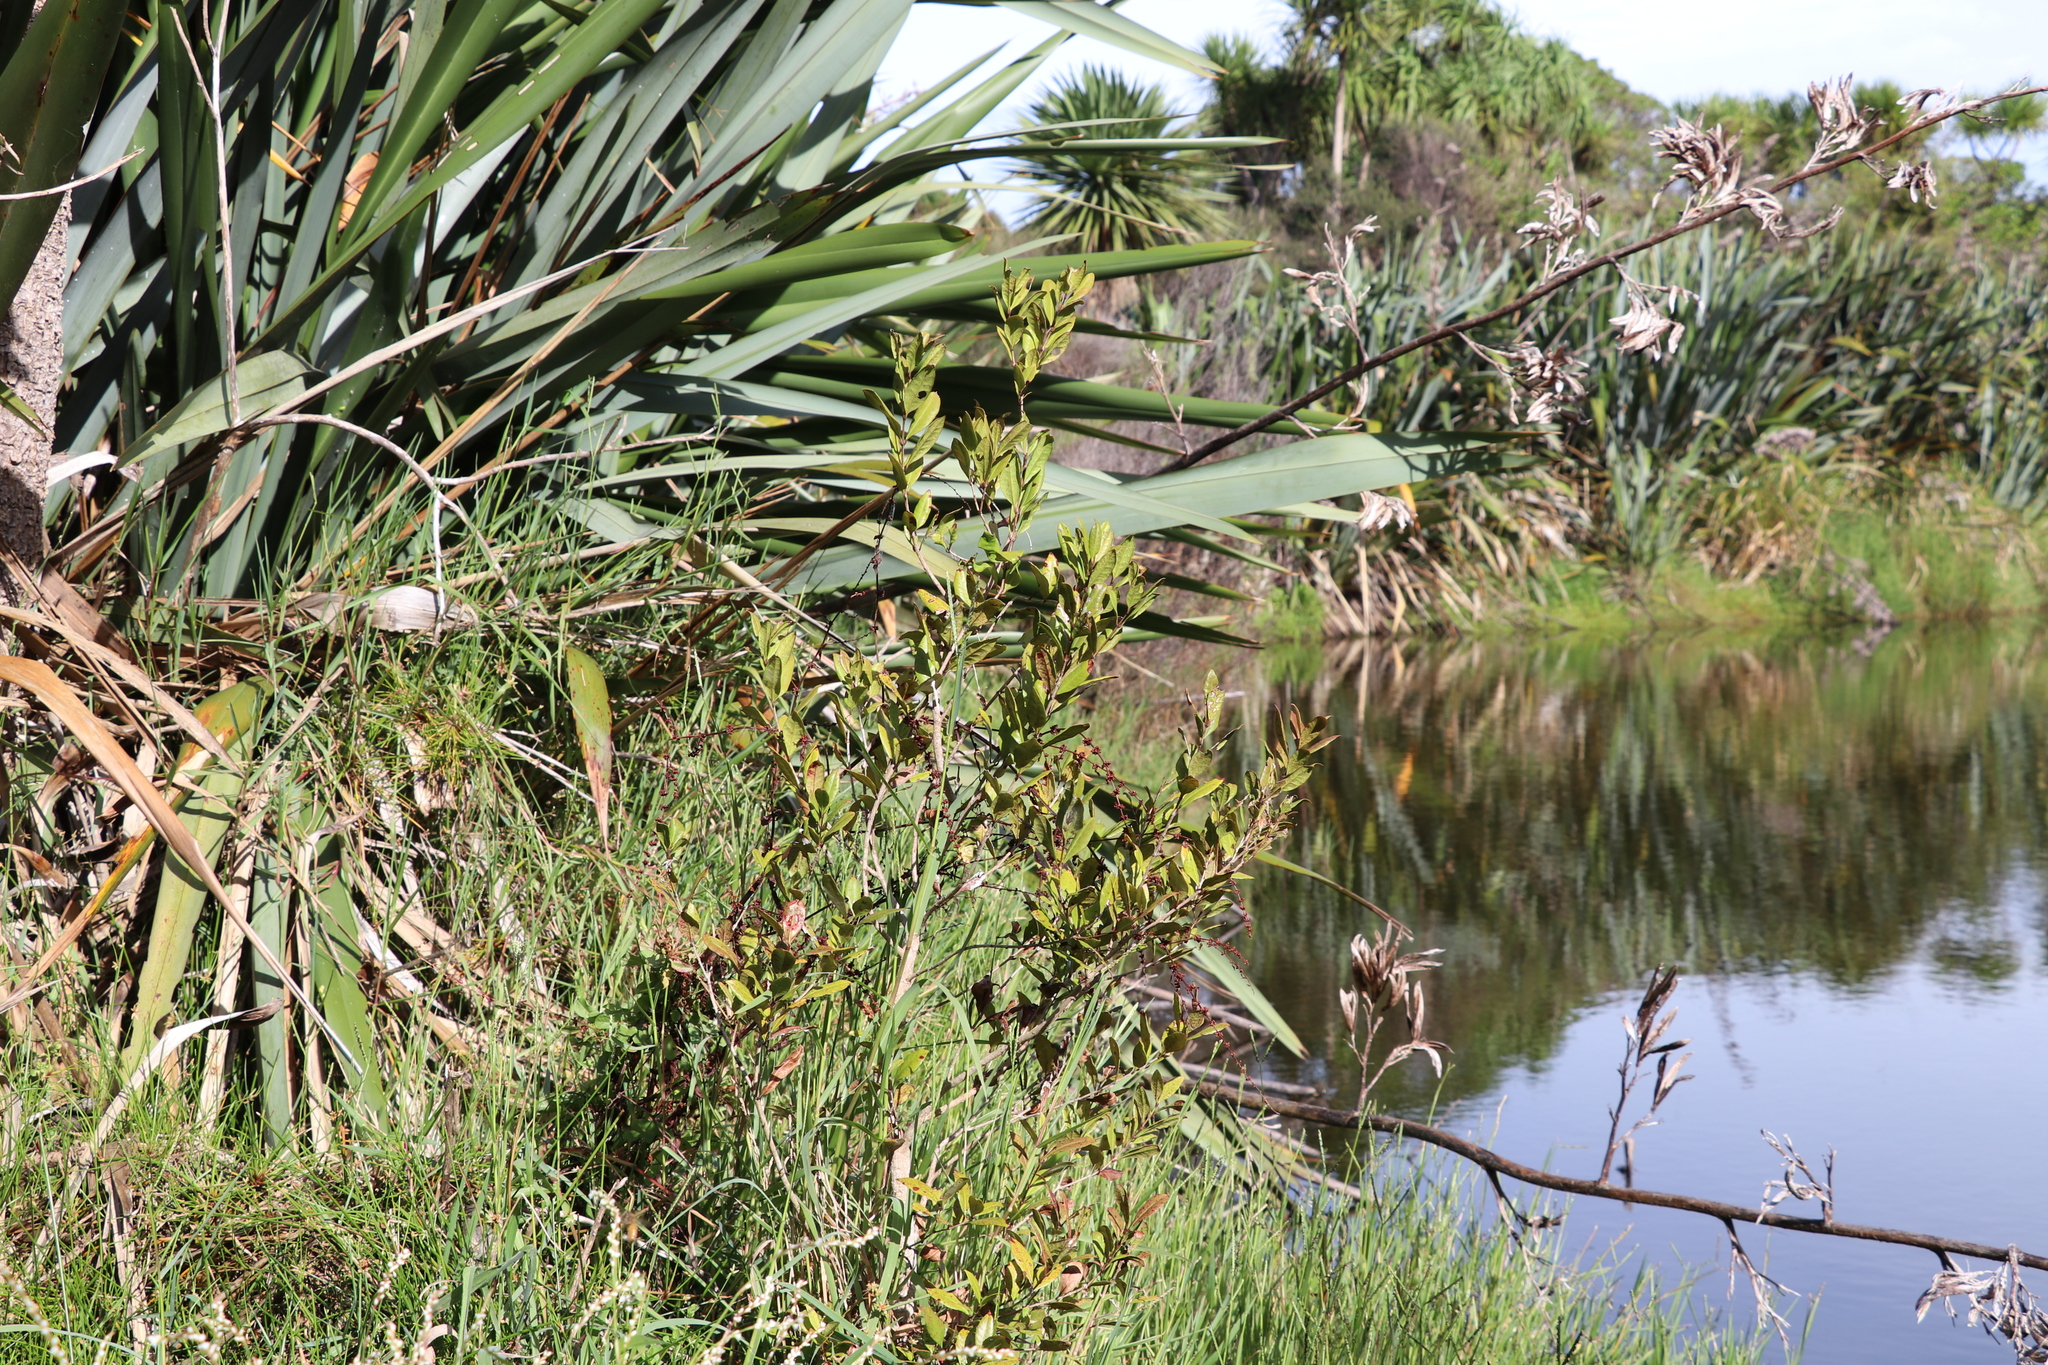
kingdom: Plantae
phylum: Tracheophyta
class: Magnoliopsida
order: Myrtales
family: Myrtaceae
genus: Syzygium
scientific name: Syzygium maire
